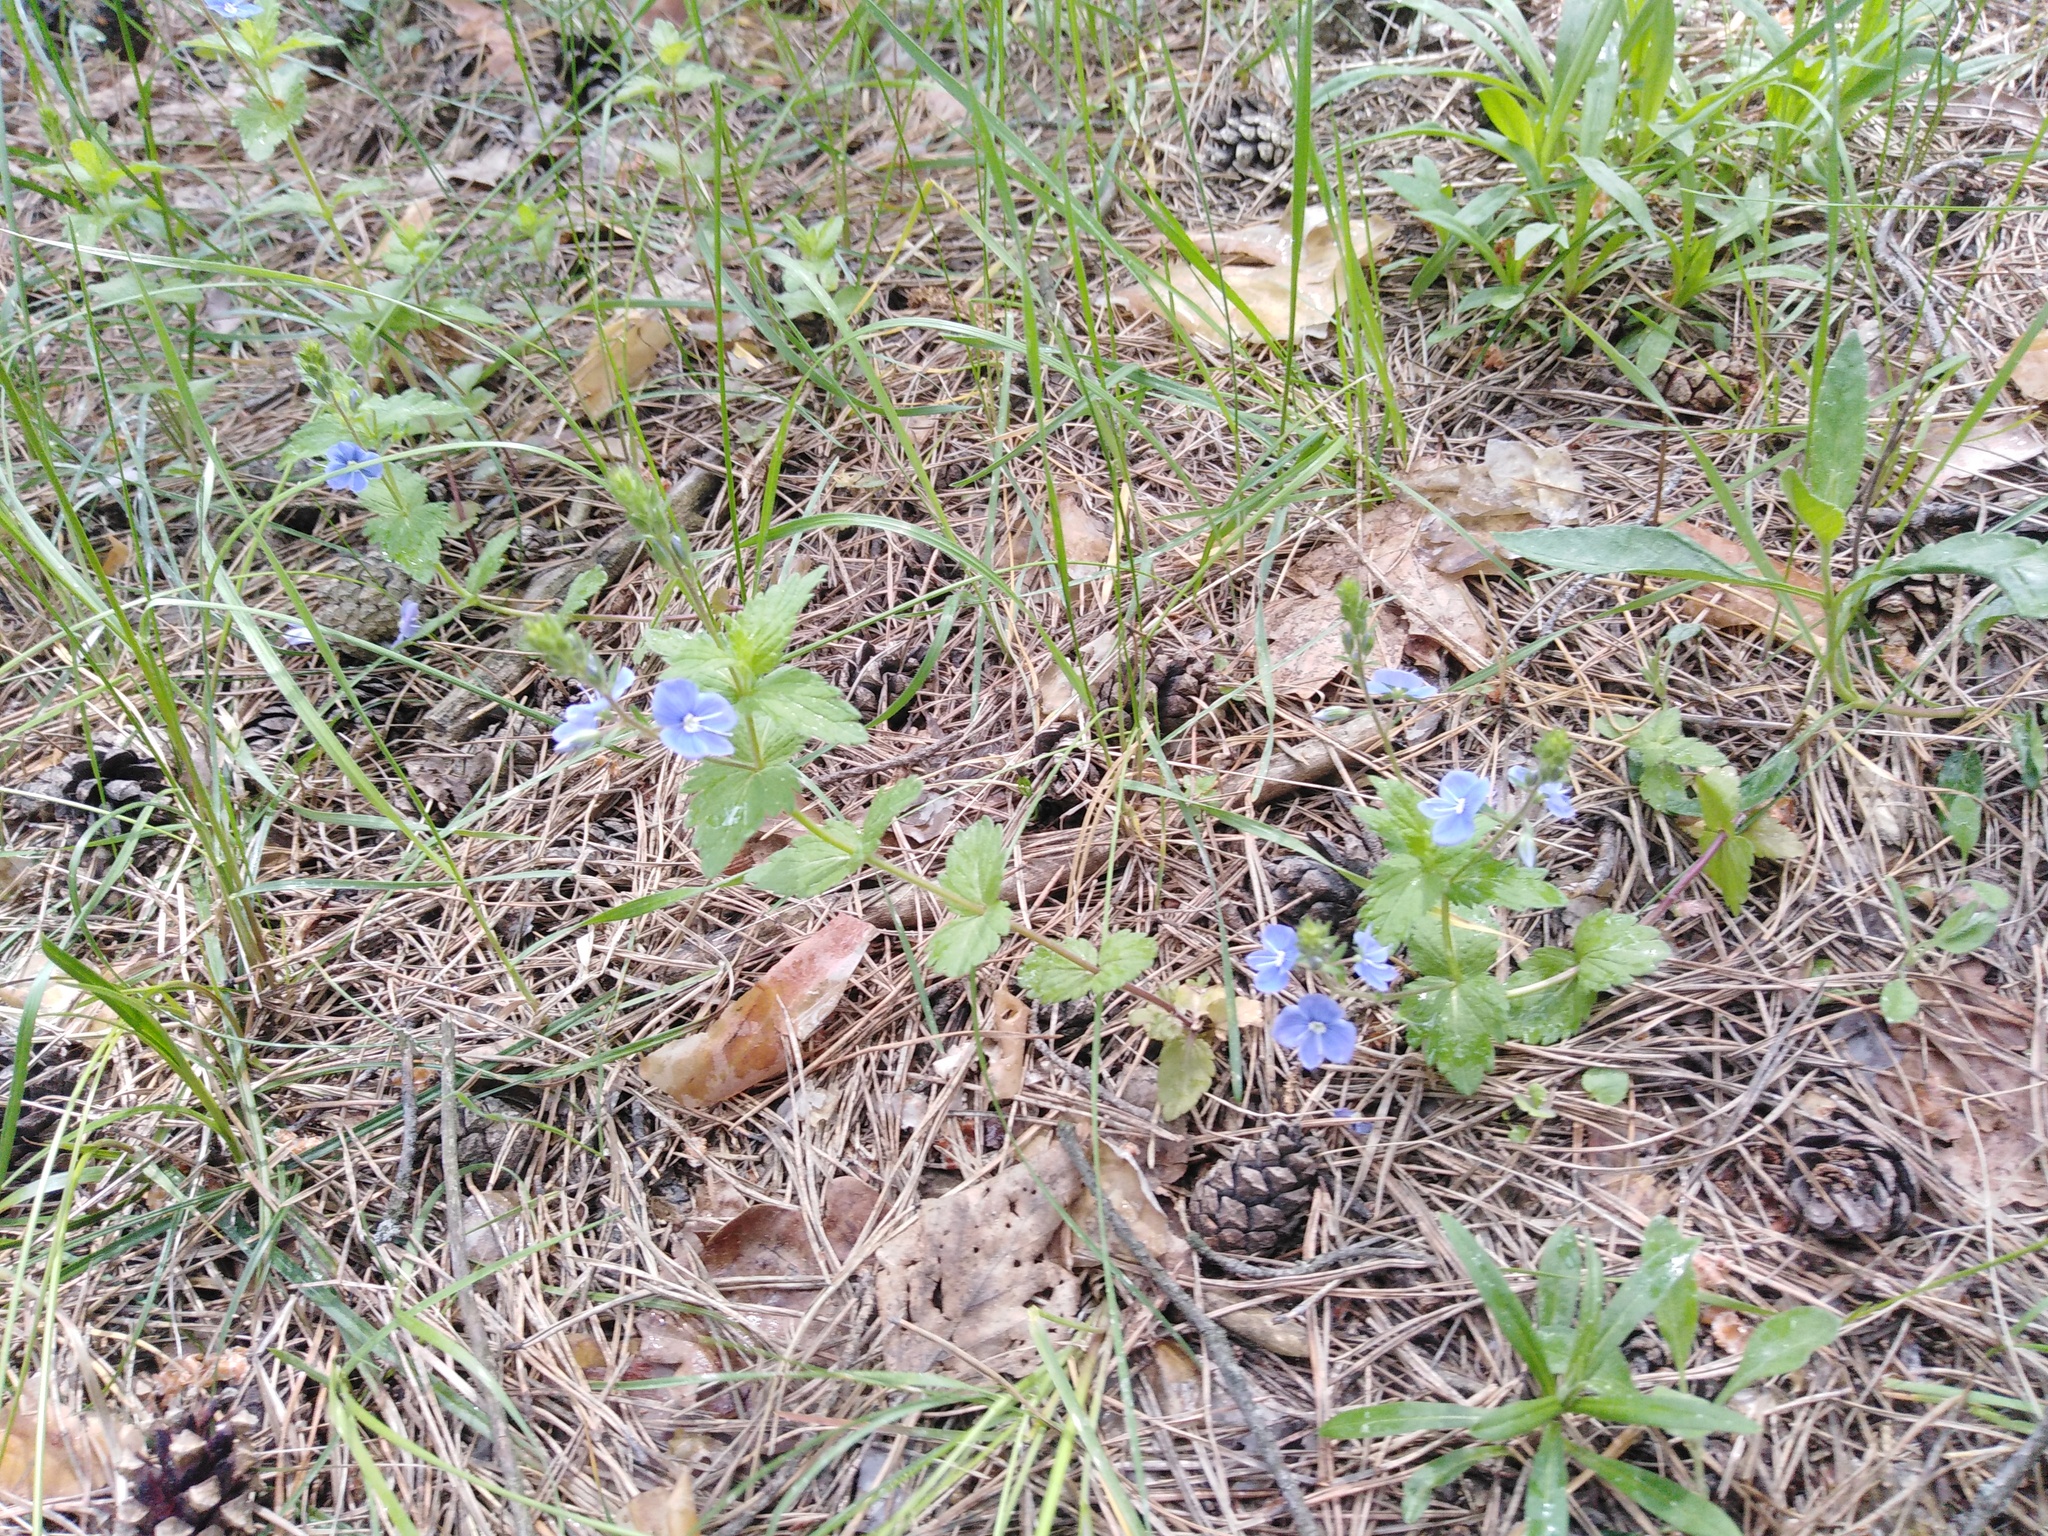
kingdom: Plantae
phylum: Tracheophyta
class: Magnoliopsida
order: Lamiales
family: Plantaginaceae
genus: Veronica
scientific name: Veronica chamaedrys
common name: Germander speedwell
